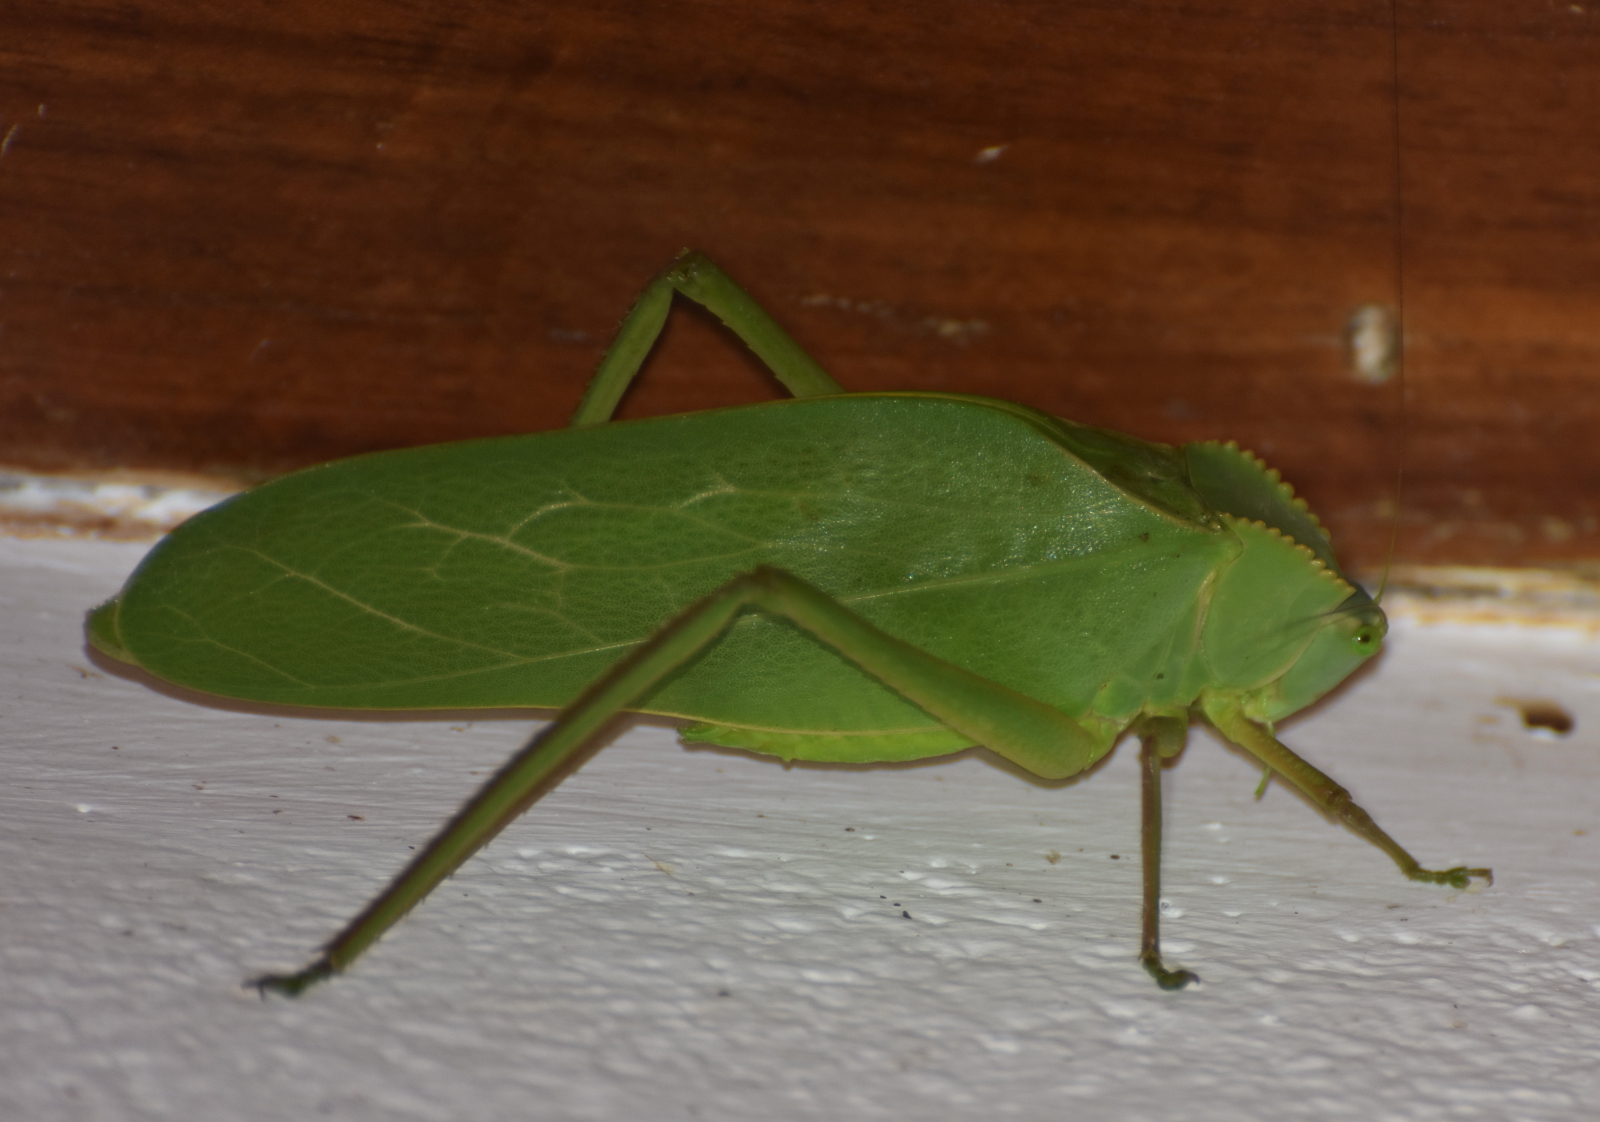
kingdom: Animalia
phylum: Arthropoda
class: Insecta
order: Orthoptera
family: Tettigoniidae
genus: Steirodon
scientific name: Steirodon stalii
